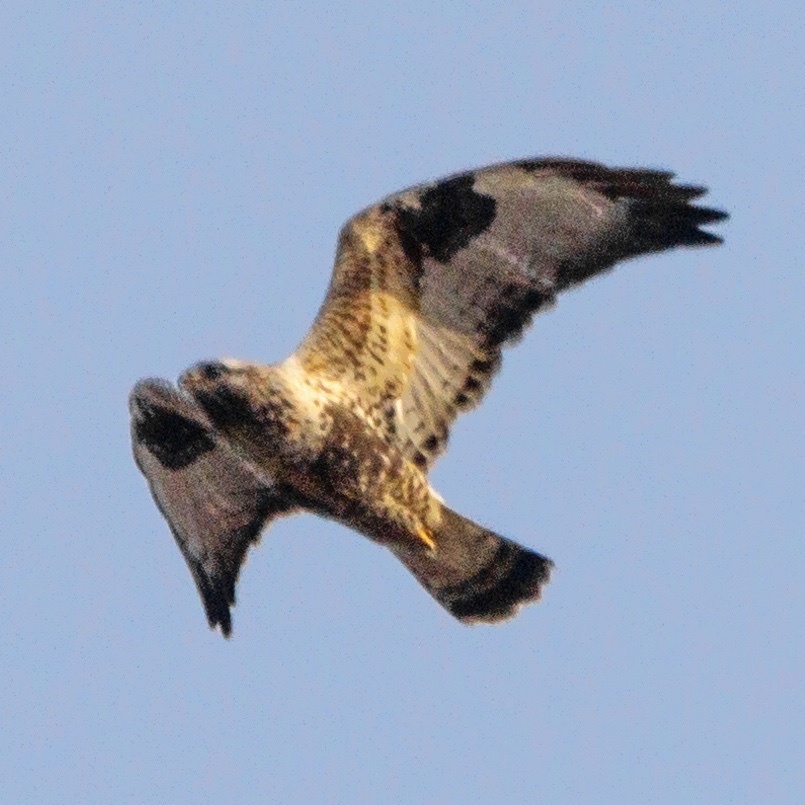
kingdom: Animalia
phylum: Chordata
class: Aves
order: Accipitriformes
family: Accipitridae
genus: Buteo
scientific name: Buteo lagopus
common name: Rough-legged buzzard
